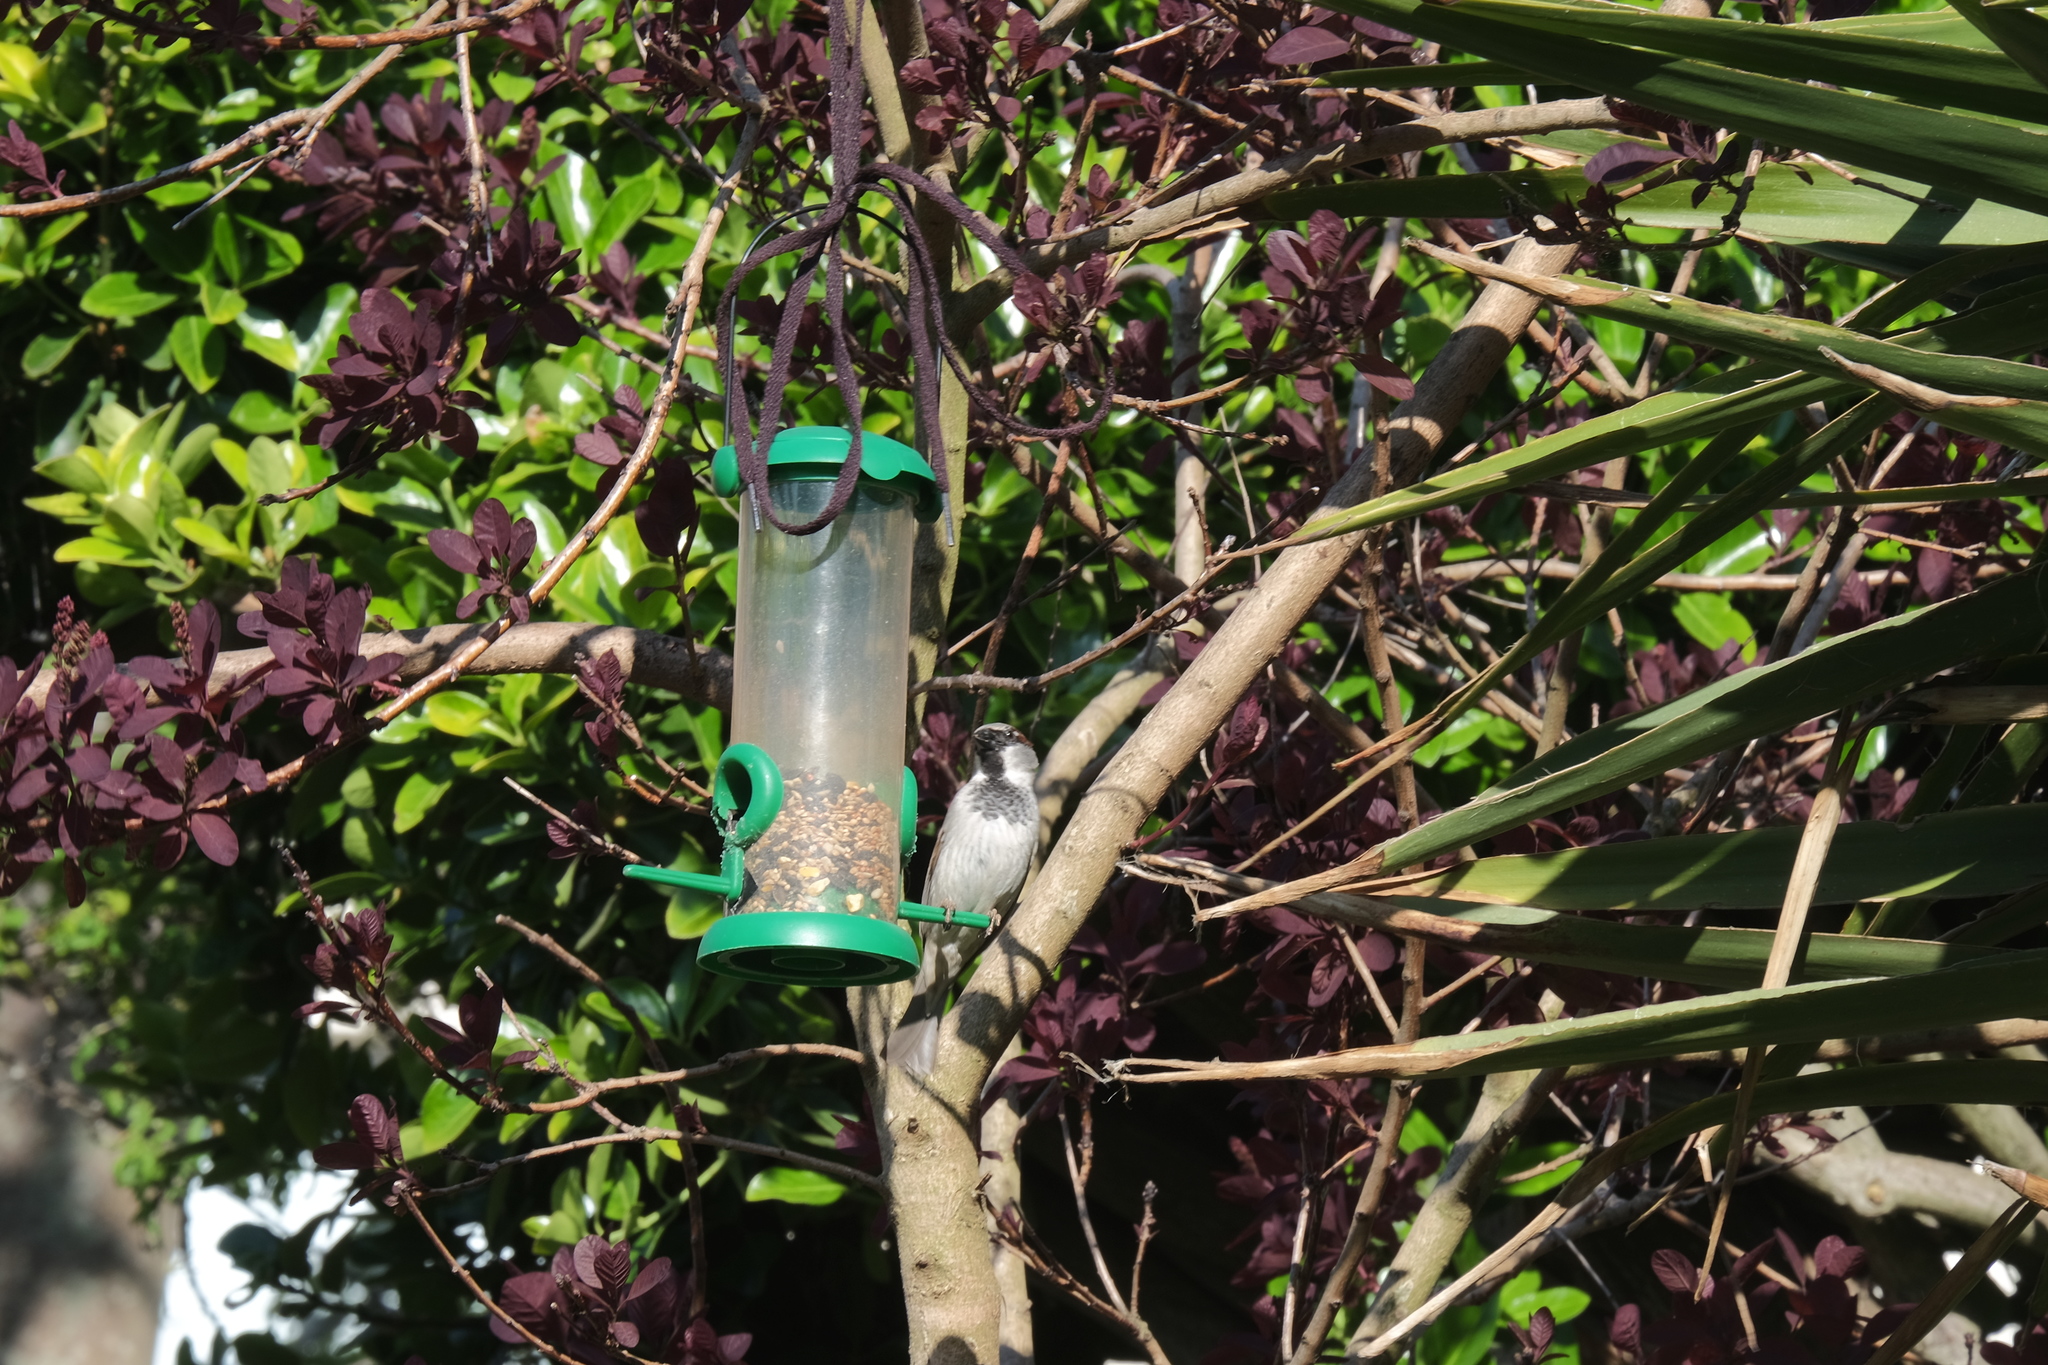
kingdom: Animalia
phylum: Chordata
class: Aves
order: Passeriformes
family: Passeridae
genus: Passer
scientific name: Passer domesticus
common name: House sparrow
